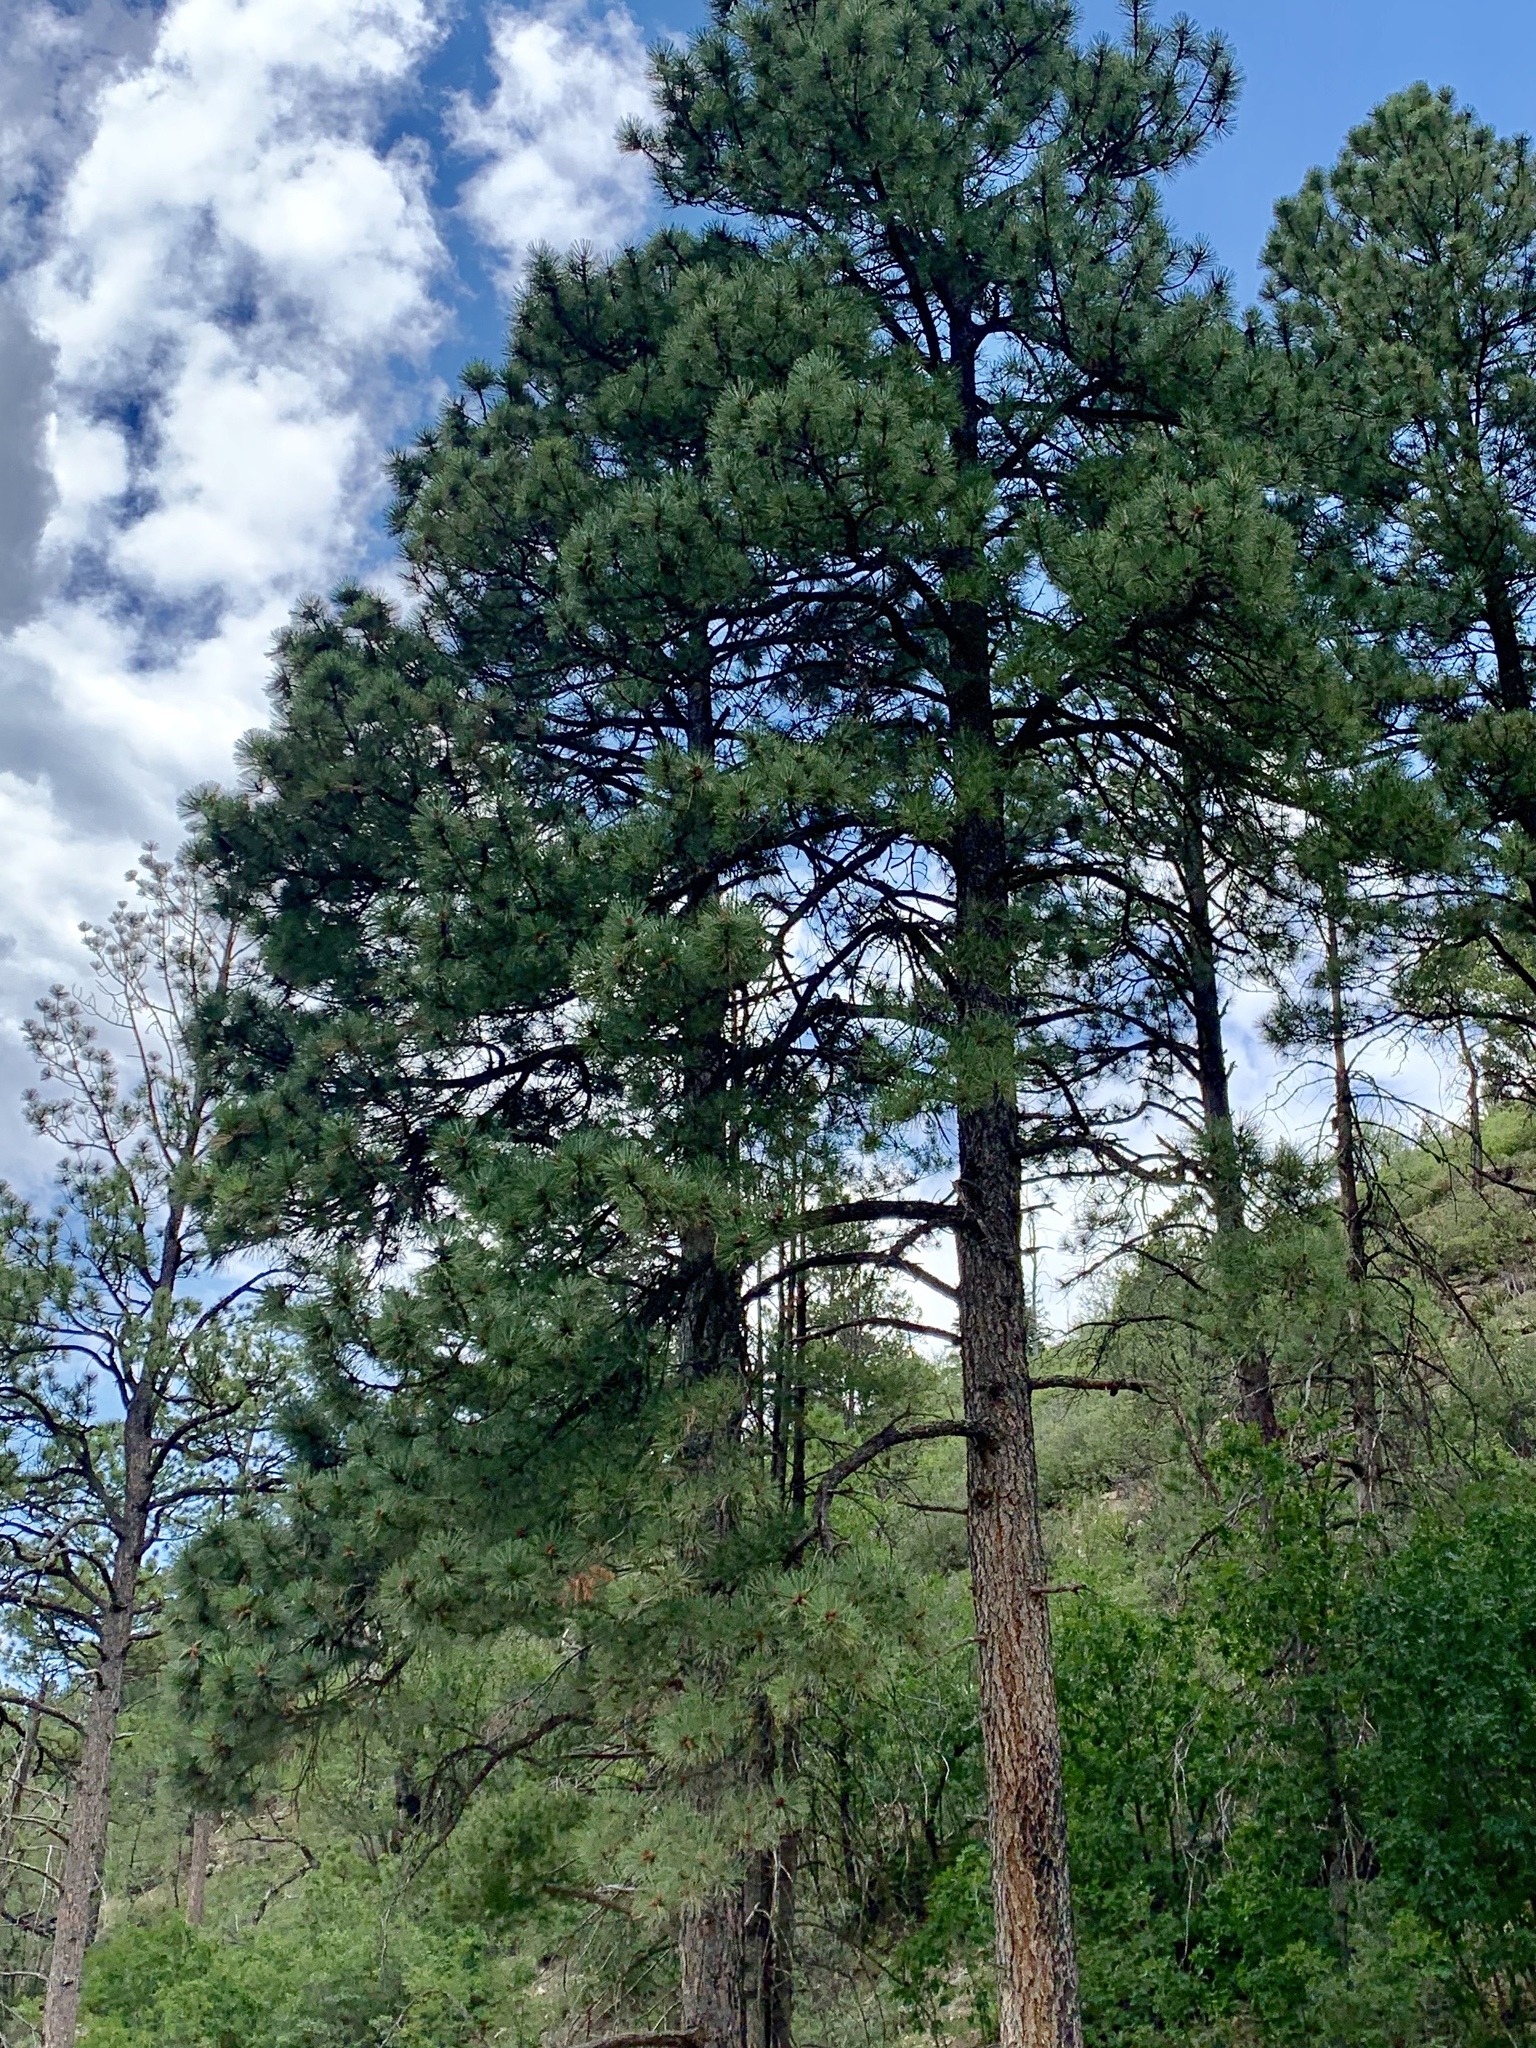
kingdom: Plantae
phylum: Tracheophyta
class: Pinopsida
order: Pinales
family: Pinaceae
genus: Pinus
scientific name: Pinus ponderosa
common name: Western yellow-pine
